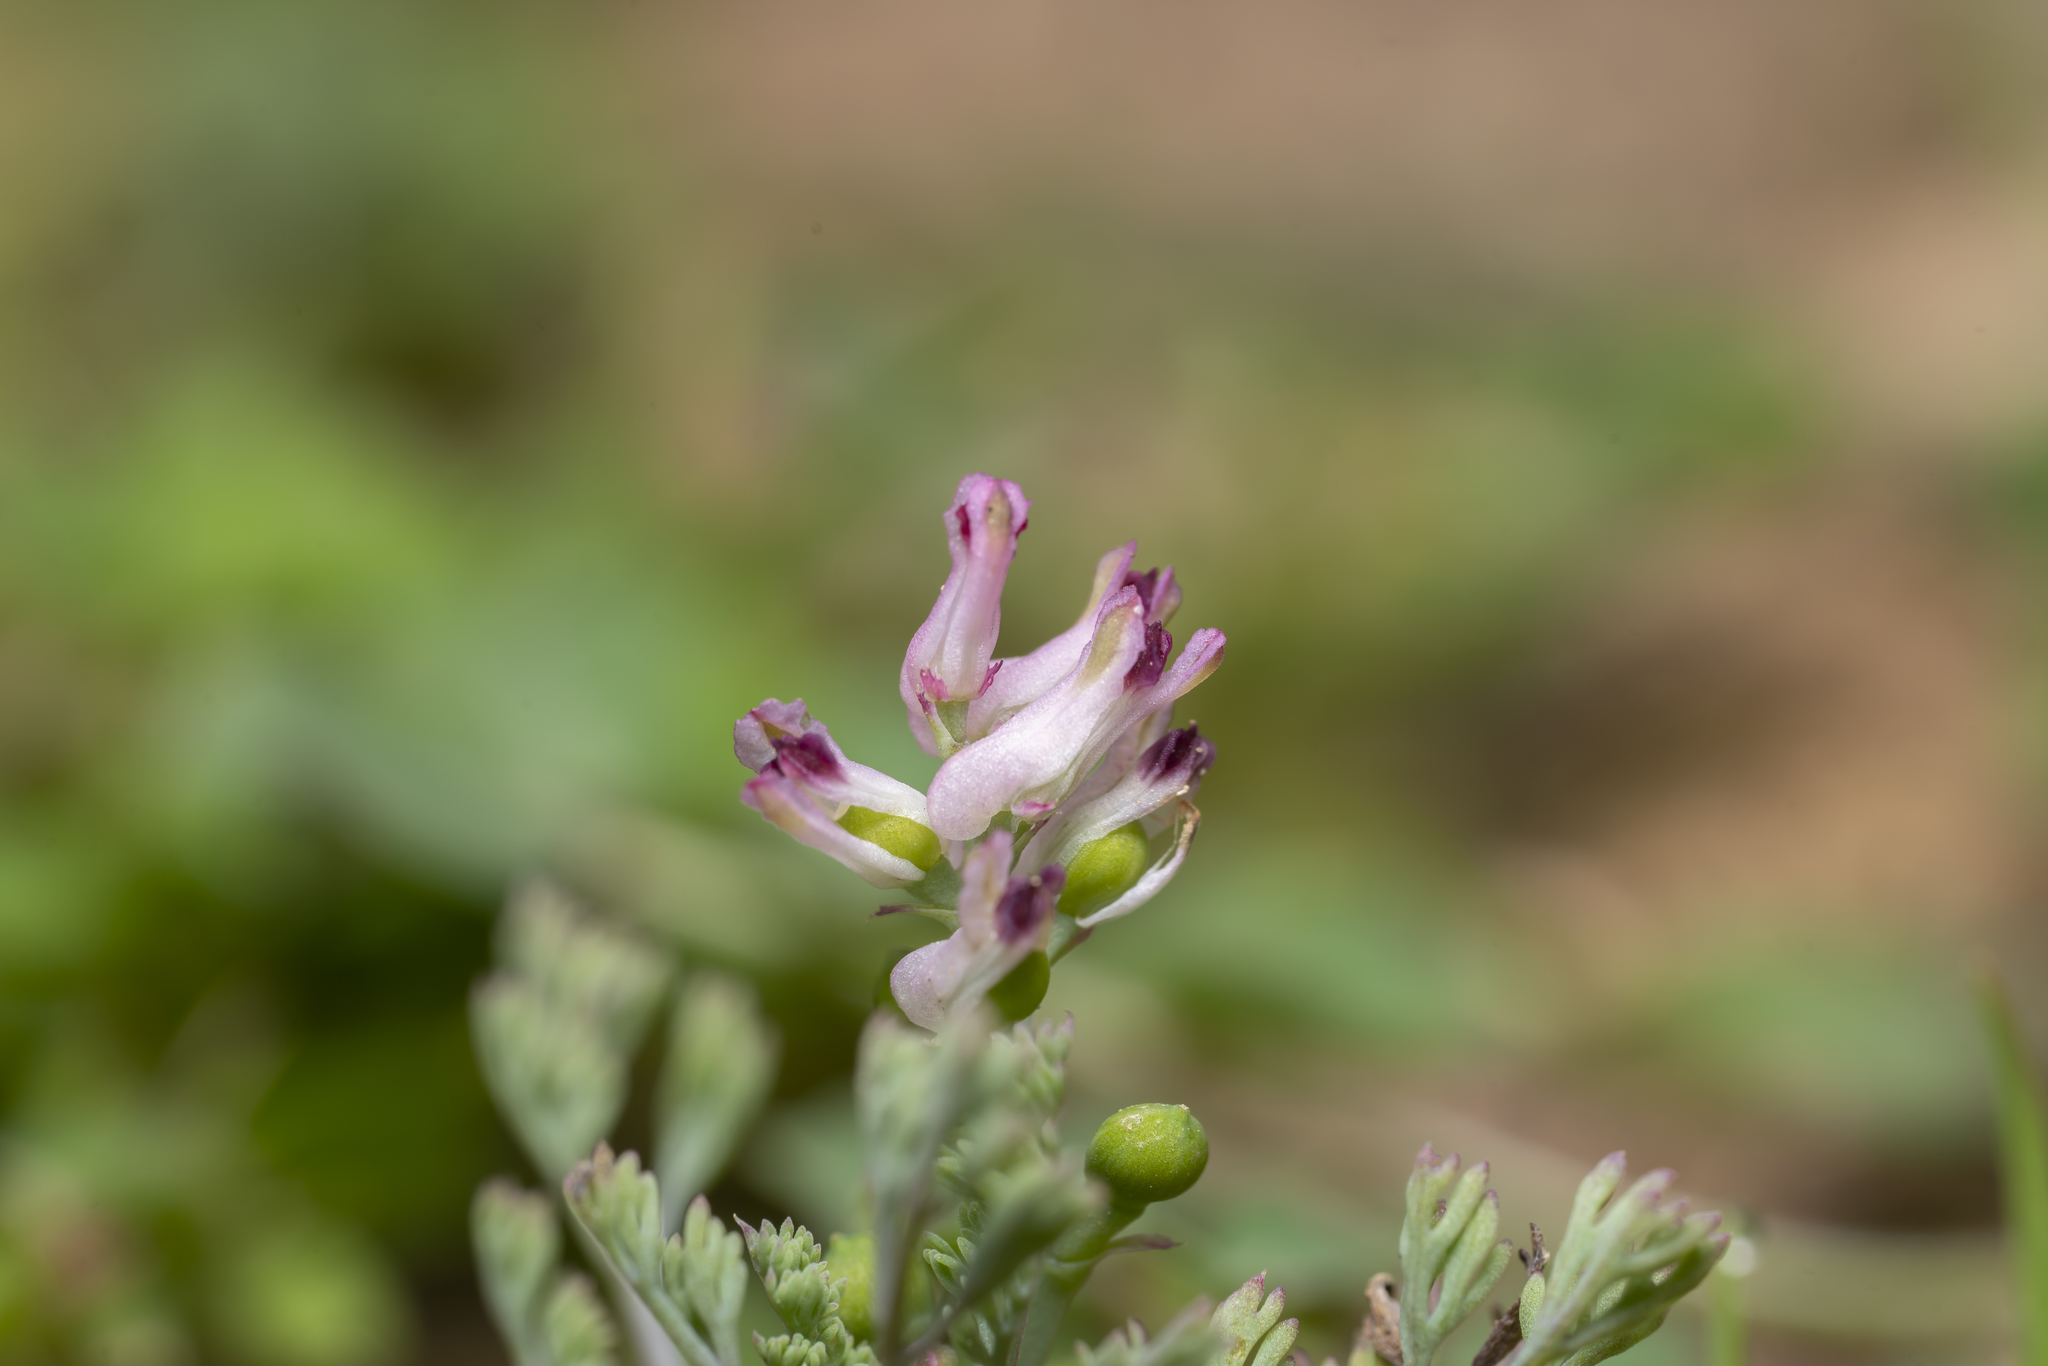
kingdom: Plantae
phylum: Tracheophyta
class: Magnoliopsida
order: Ranunculales
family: Papaveraceae
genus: Fumaria
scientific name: Fumaria parviflora
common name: Fine-leaved fumitory
